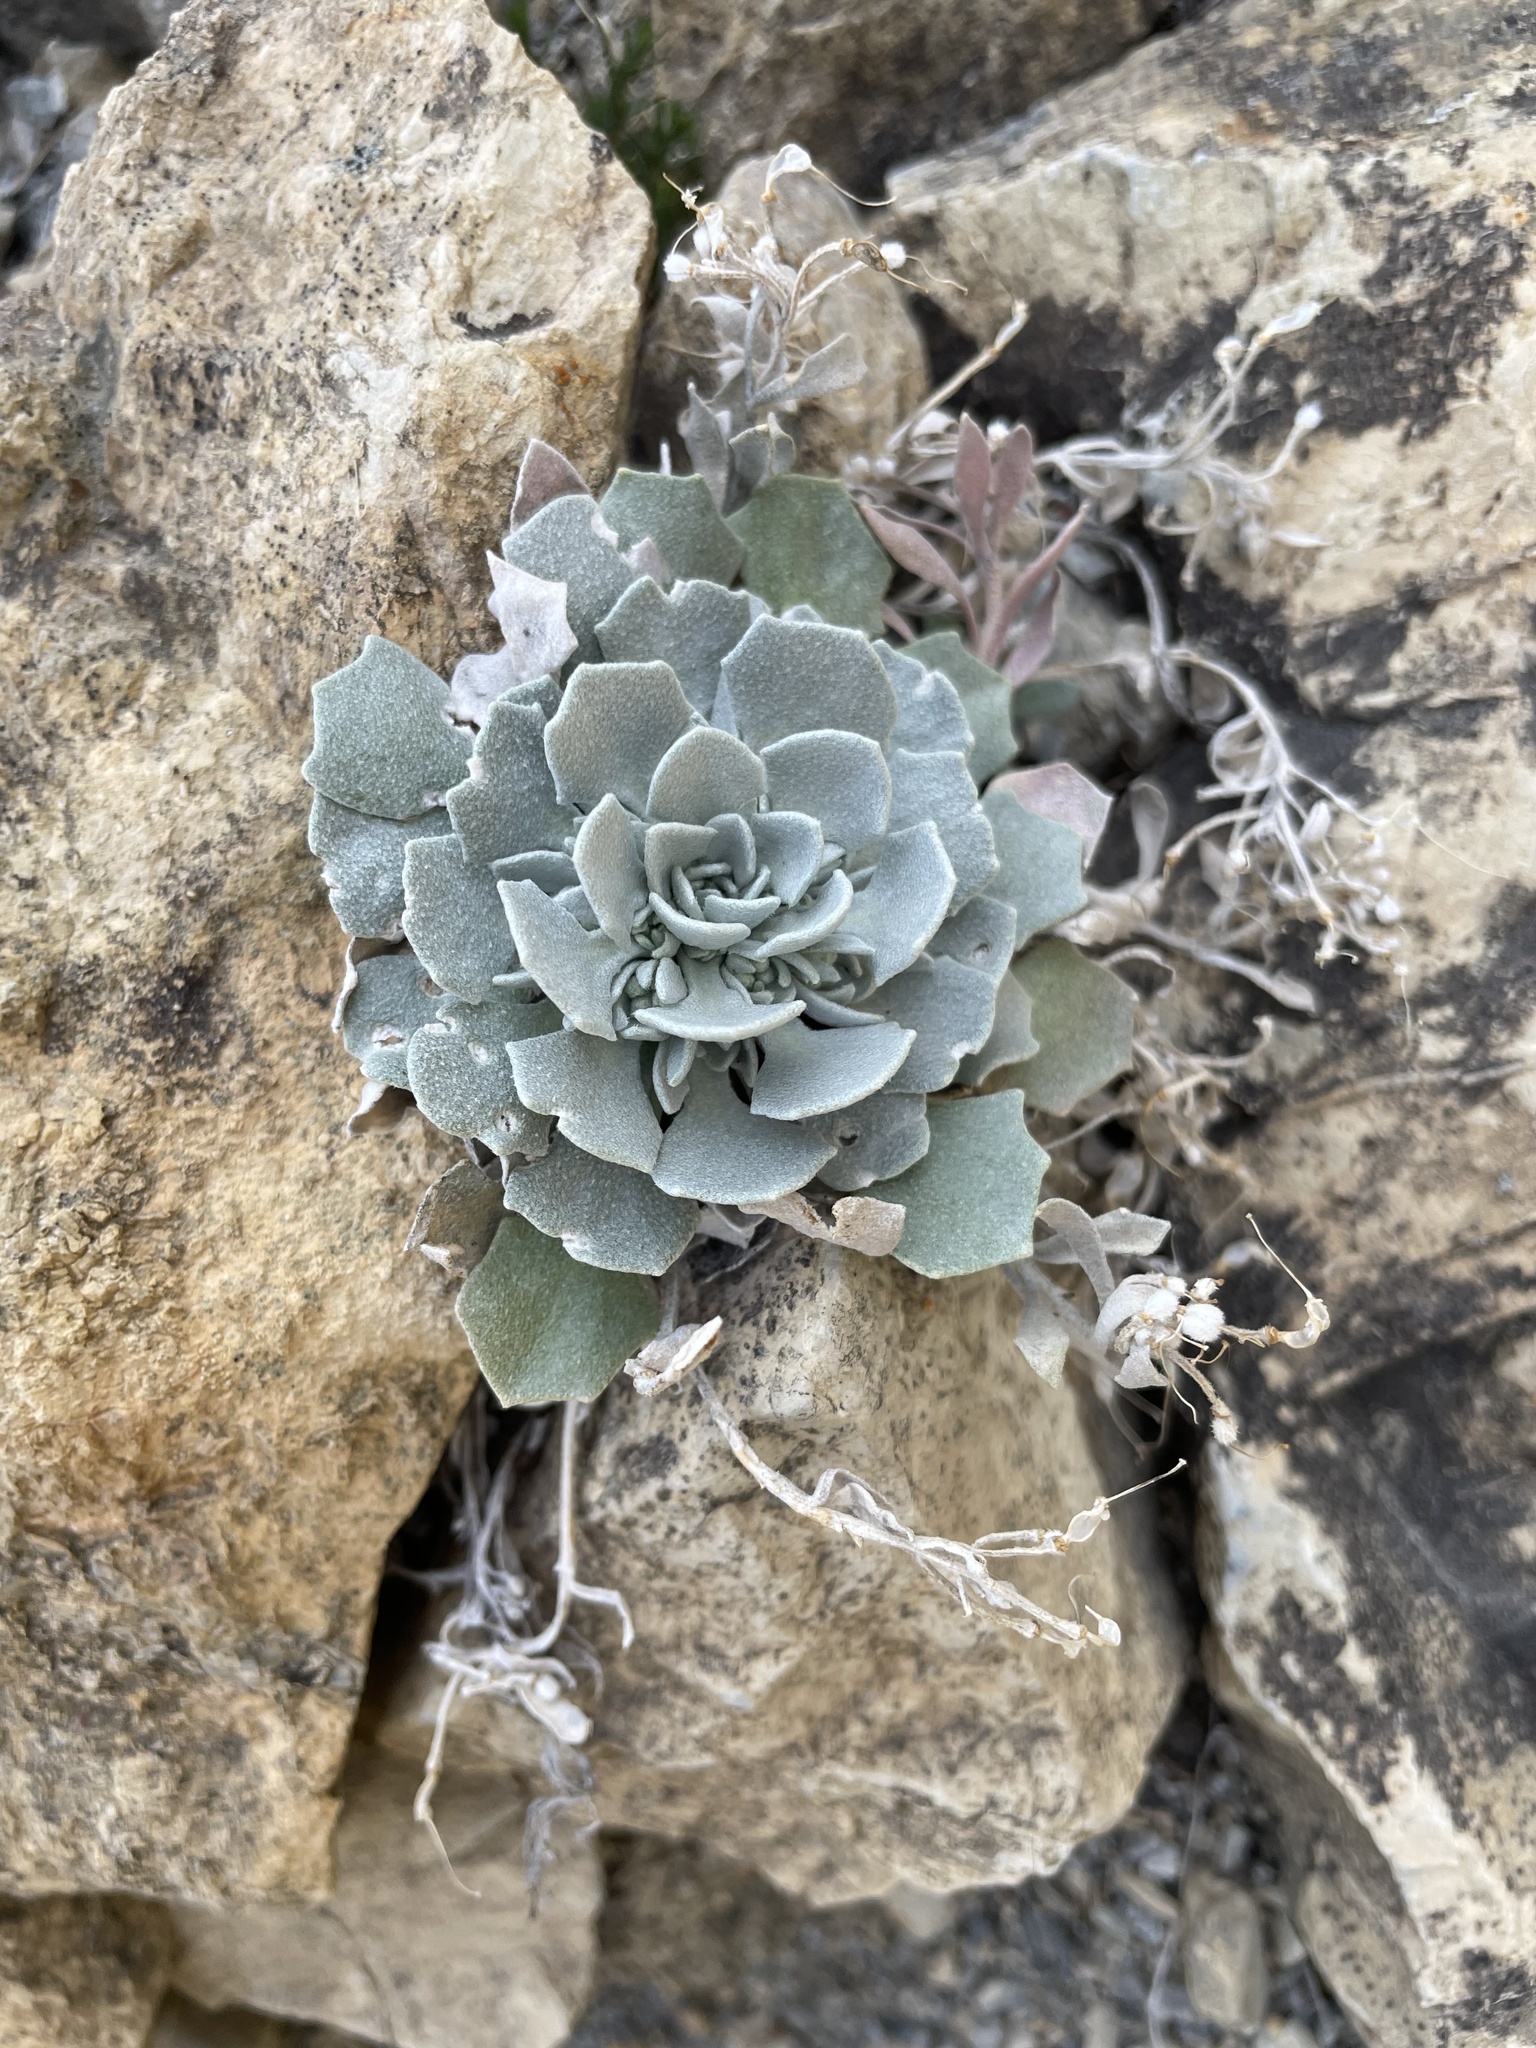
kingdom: Plantae
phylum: Tracheophyta
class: Magnoliopsida
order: Brassicales
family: Brassicaceae
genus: Physaria
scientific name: Physaria didymocarpa
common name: Common twinpod
